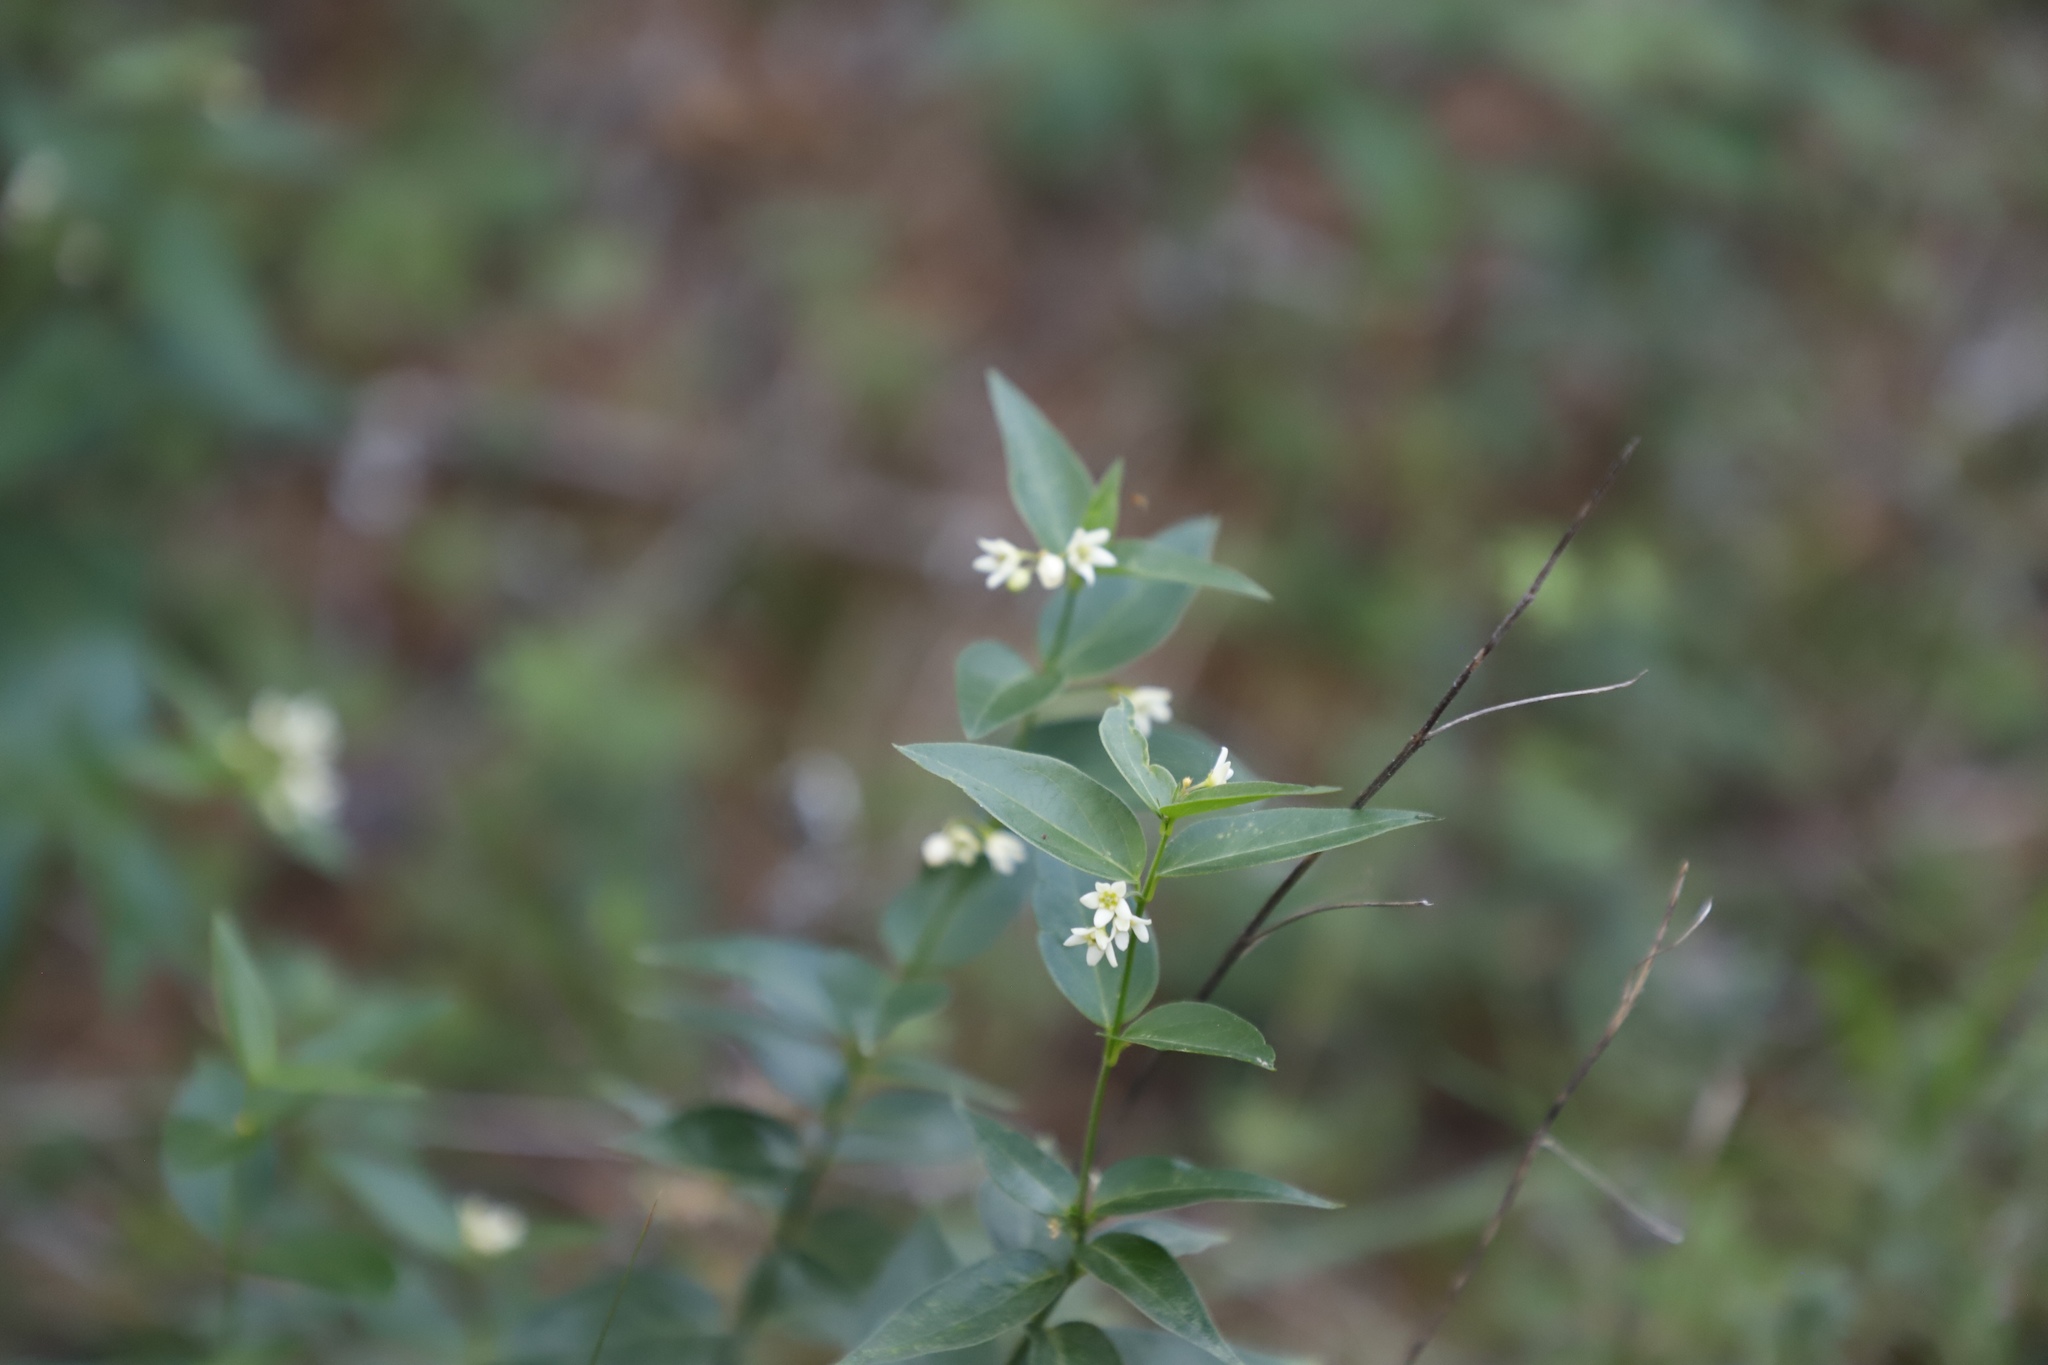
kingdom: Plantae
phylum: Tracheophyta
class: Magnoliopsida
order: Gentianales
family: Apocynaceae
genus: Vincetoxicum
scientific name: Vincetoxicum hirundinaria
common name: White swallowwort
